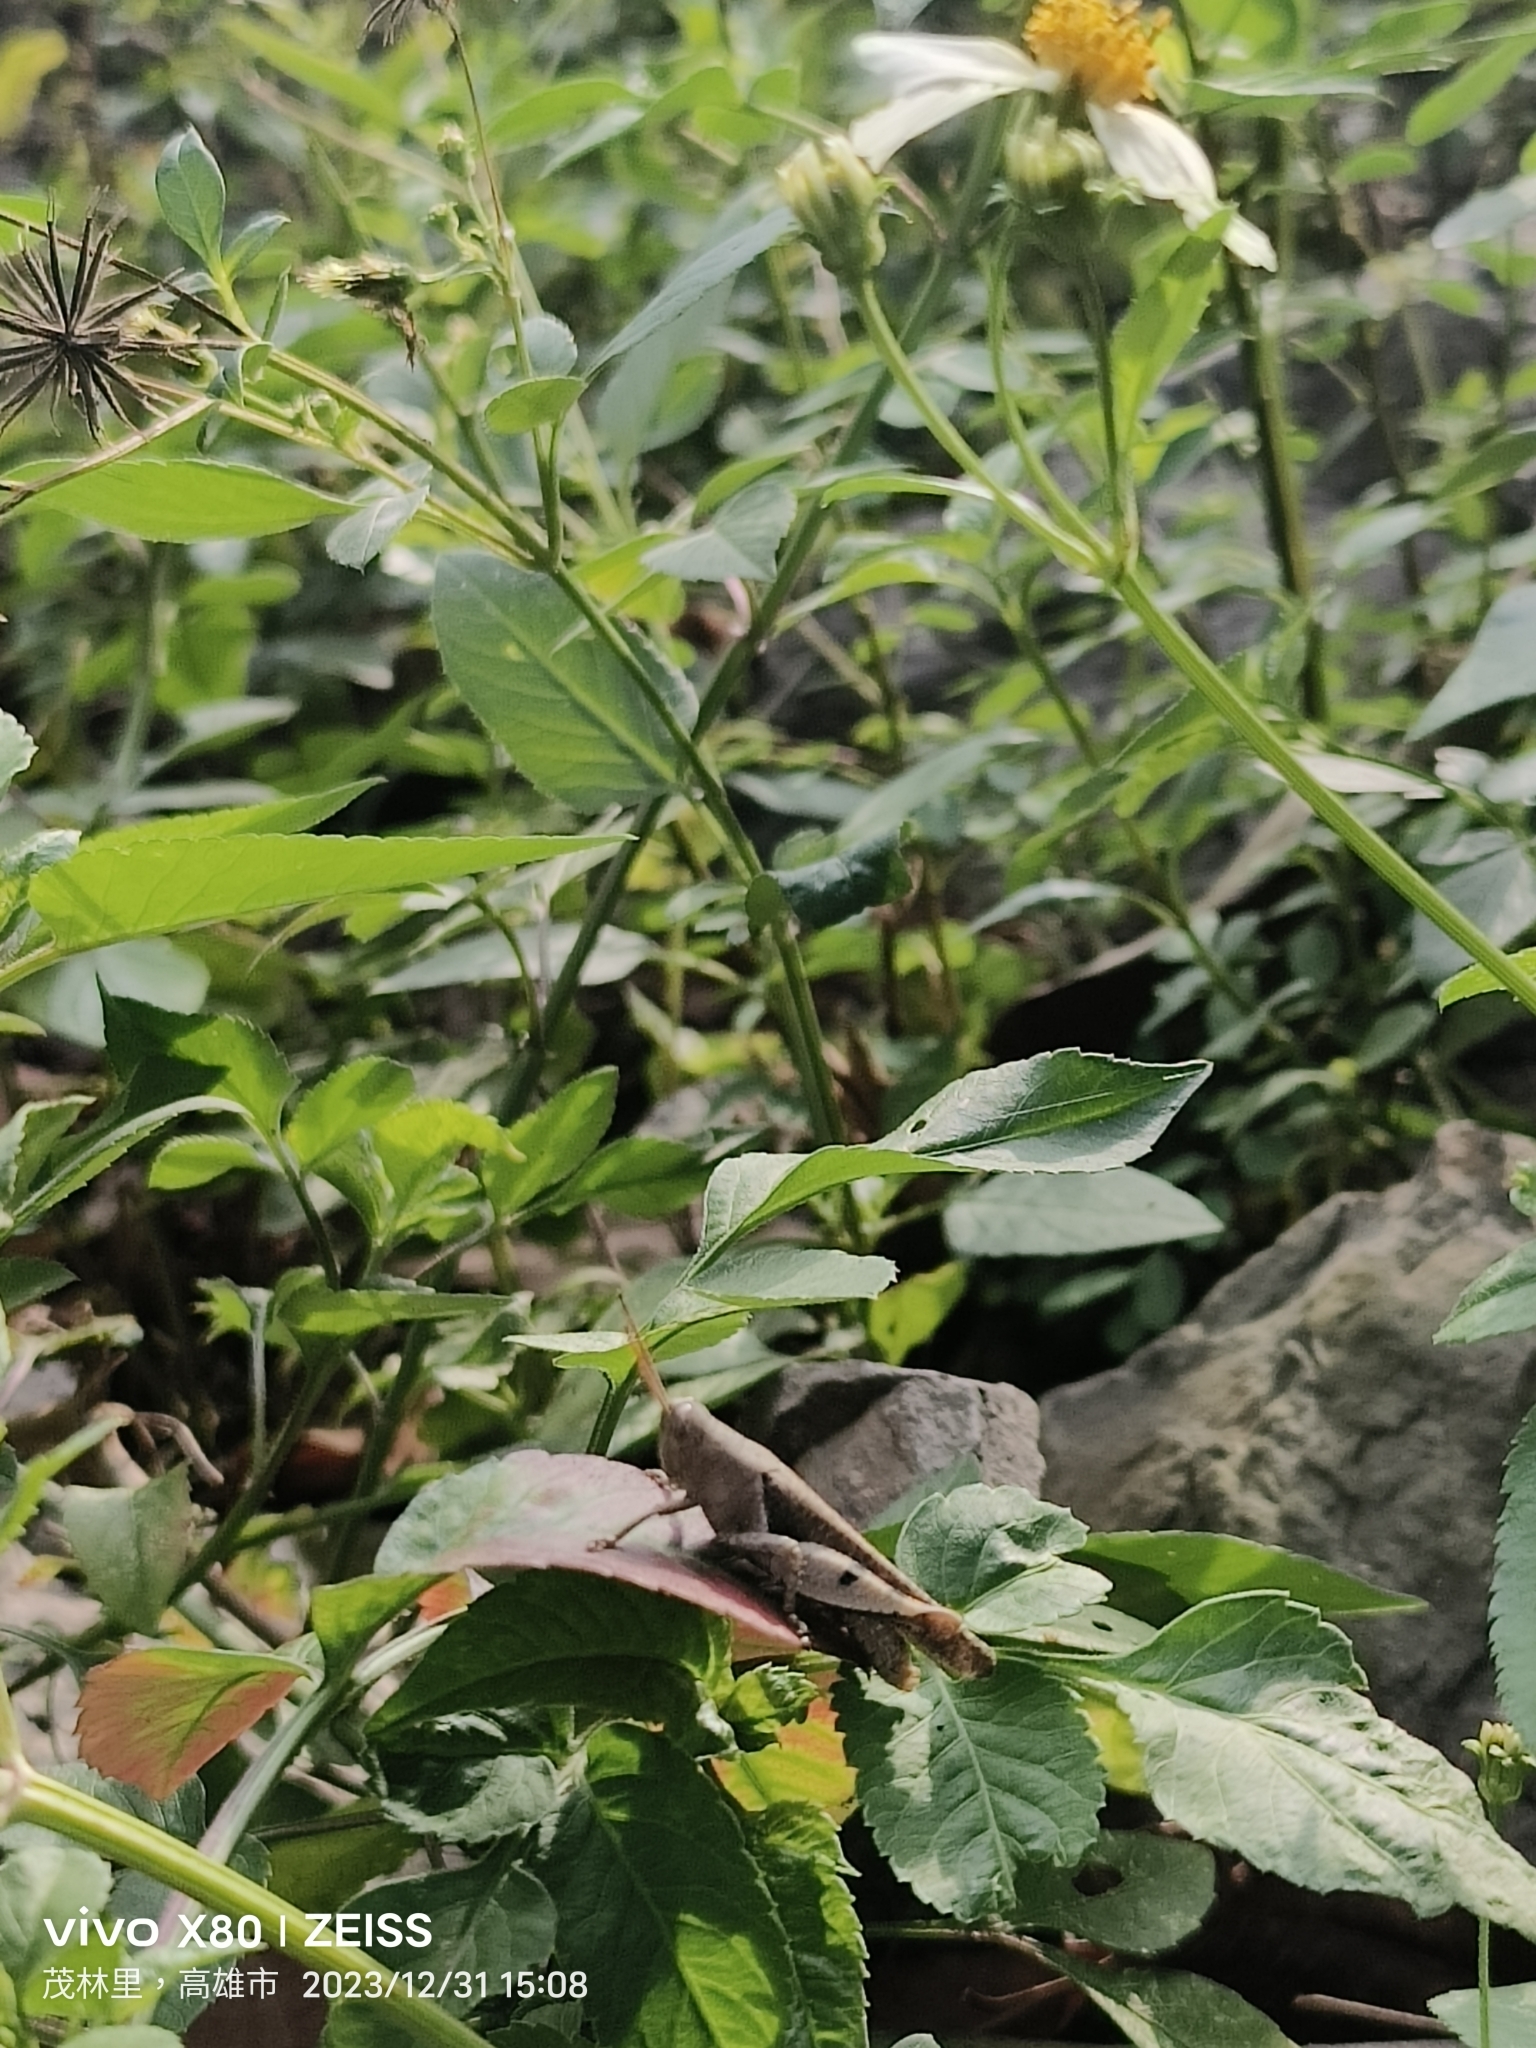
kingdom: Animalia
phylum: Arthropoda
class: Insecta
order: Orthoptera
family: Acrididae
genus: Diabolocatantops
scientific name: Diabolocatantops pinguis
